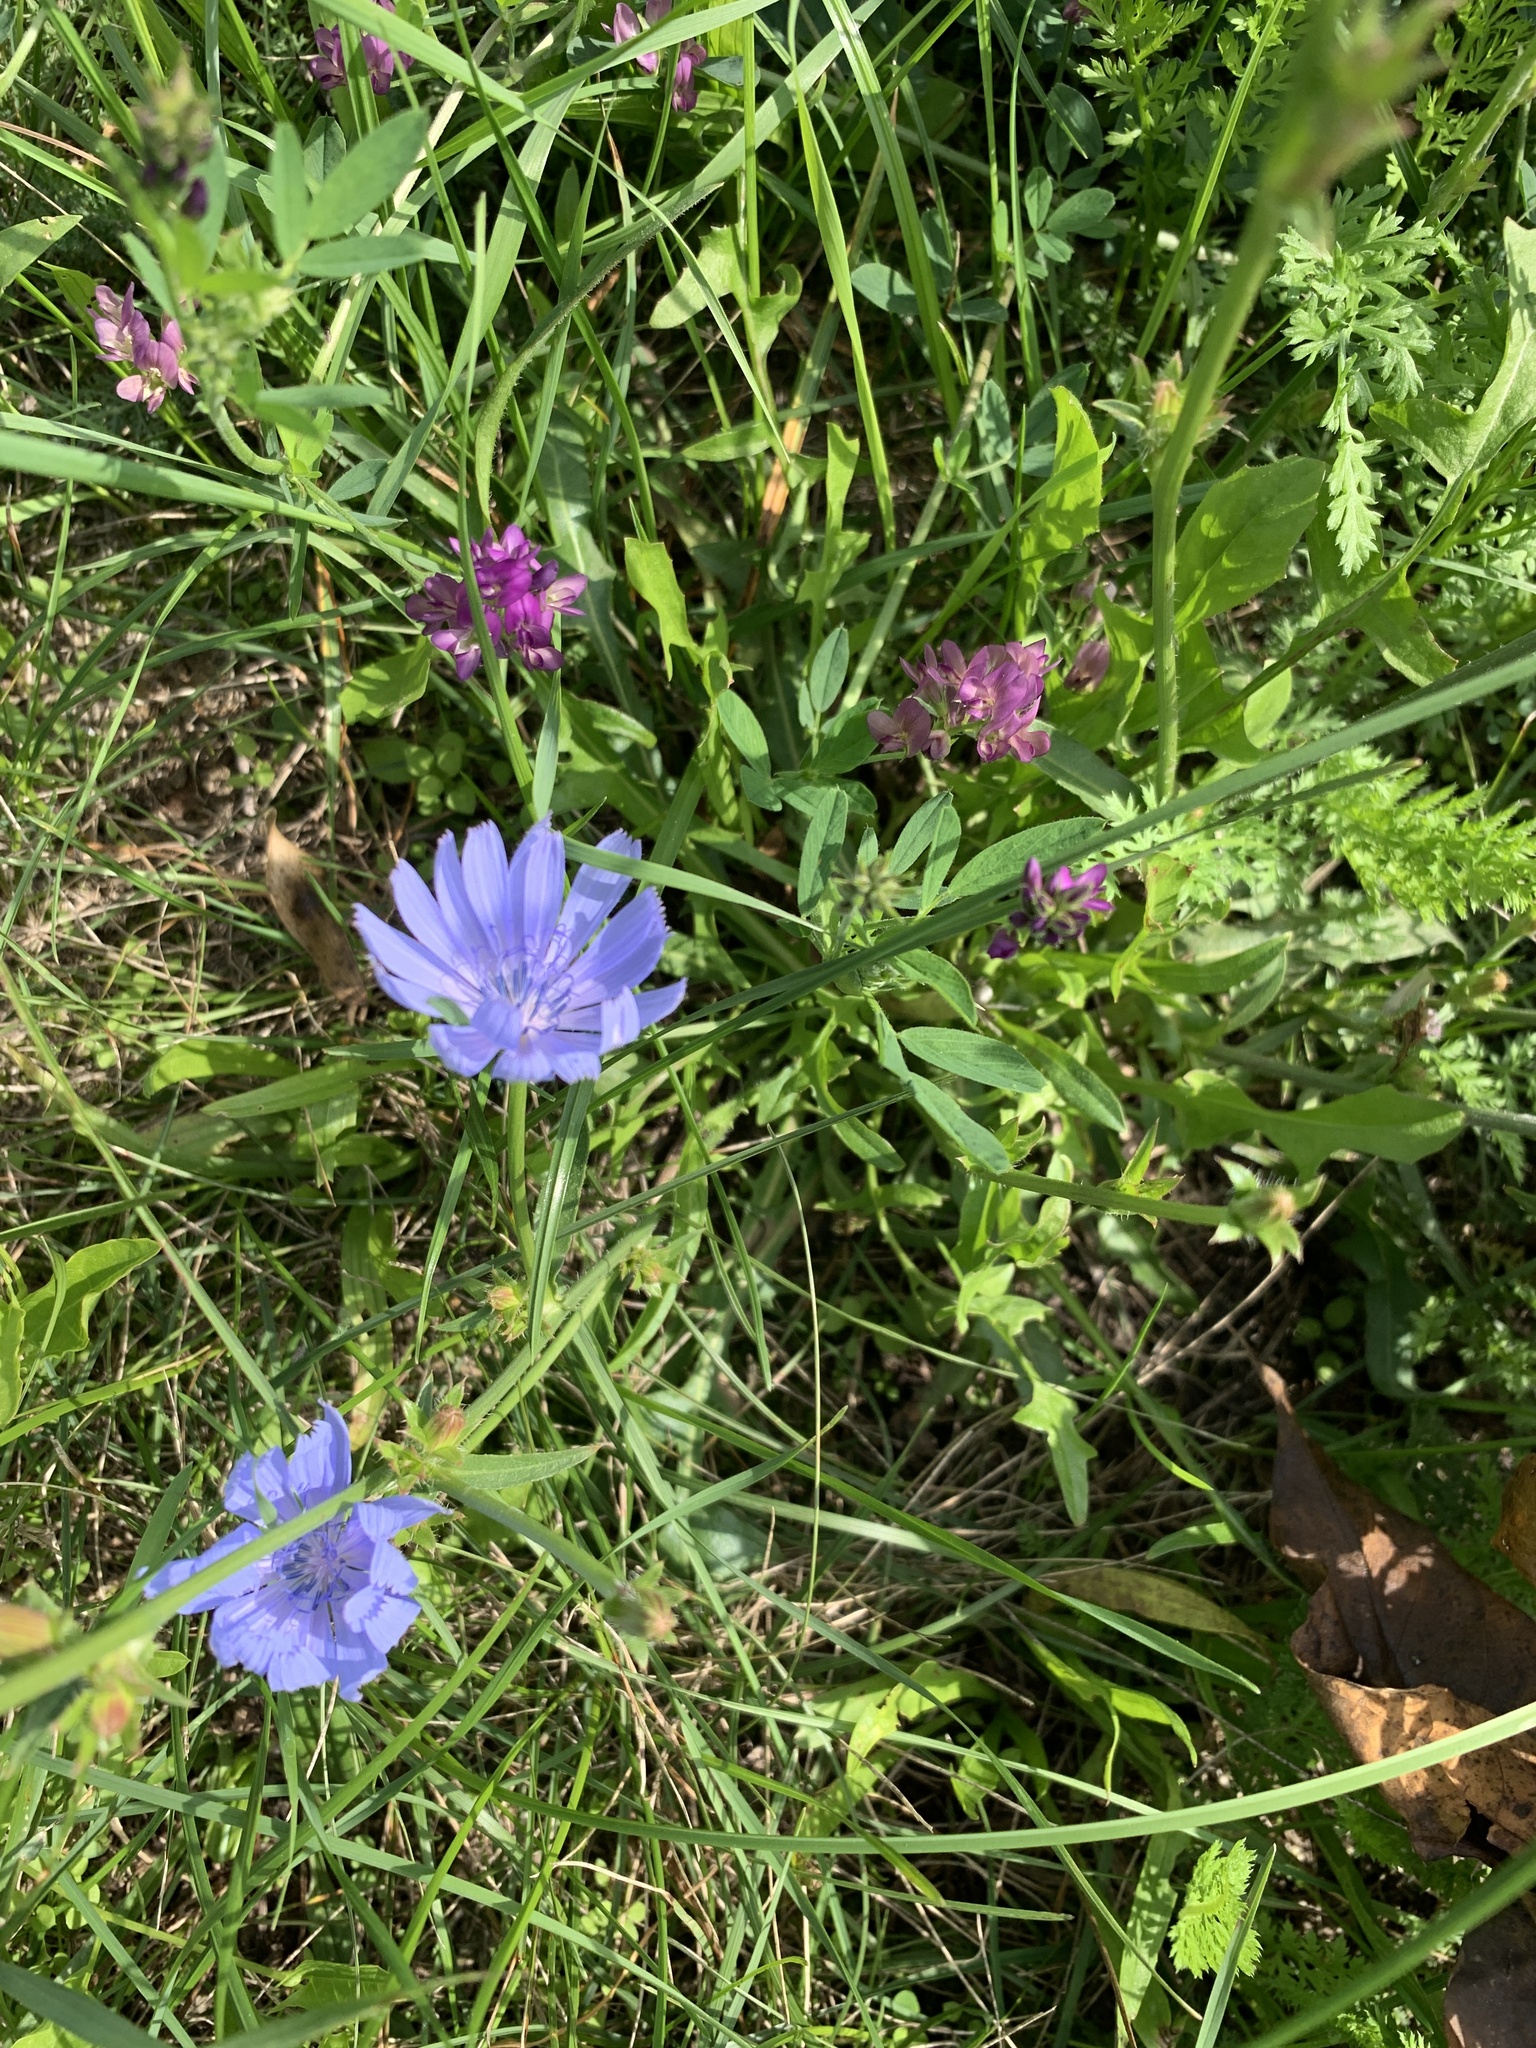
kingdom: Plantae
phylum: Tracheophyta
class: Magnoliopsida
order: Asterales
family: Asteraceae
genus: Cichorium
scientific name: Cichorium intybus
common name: Chicory
